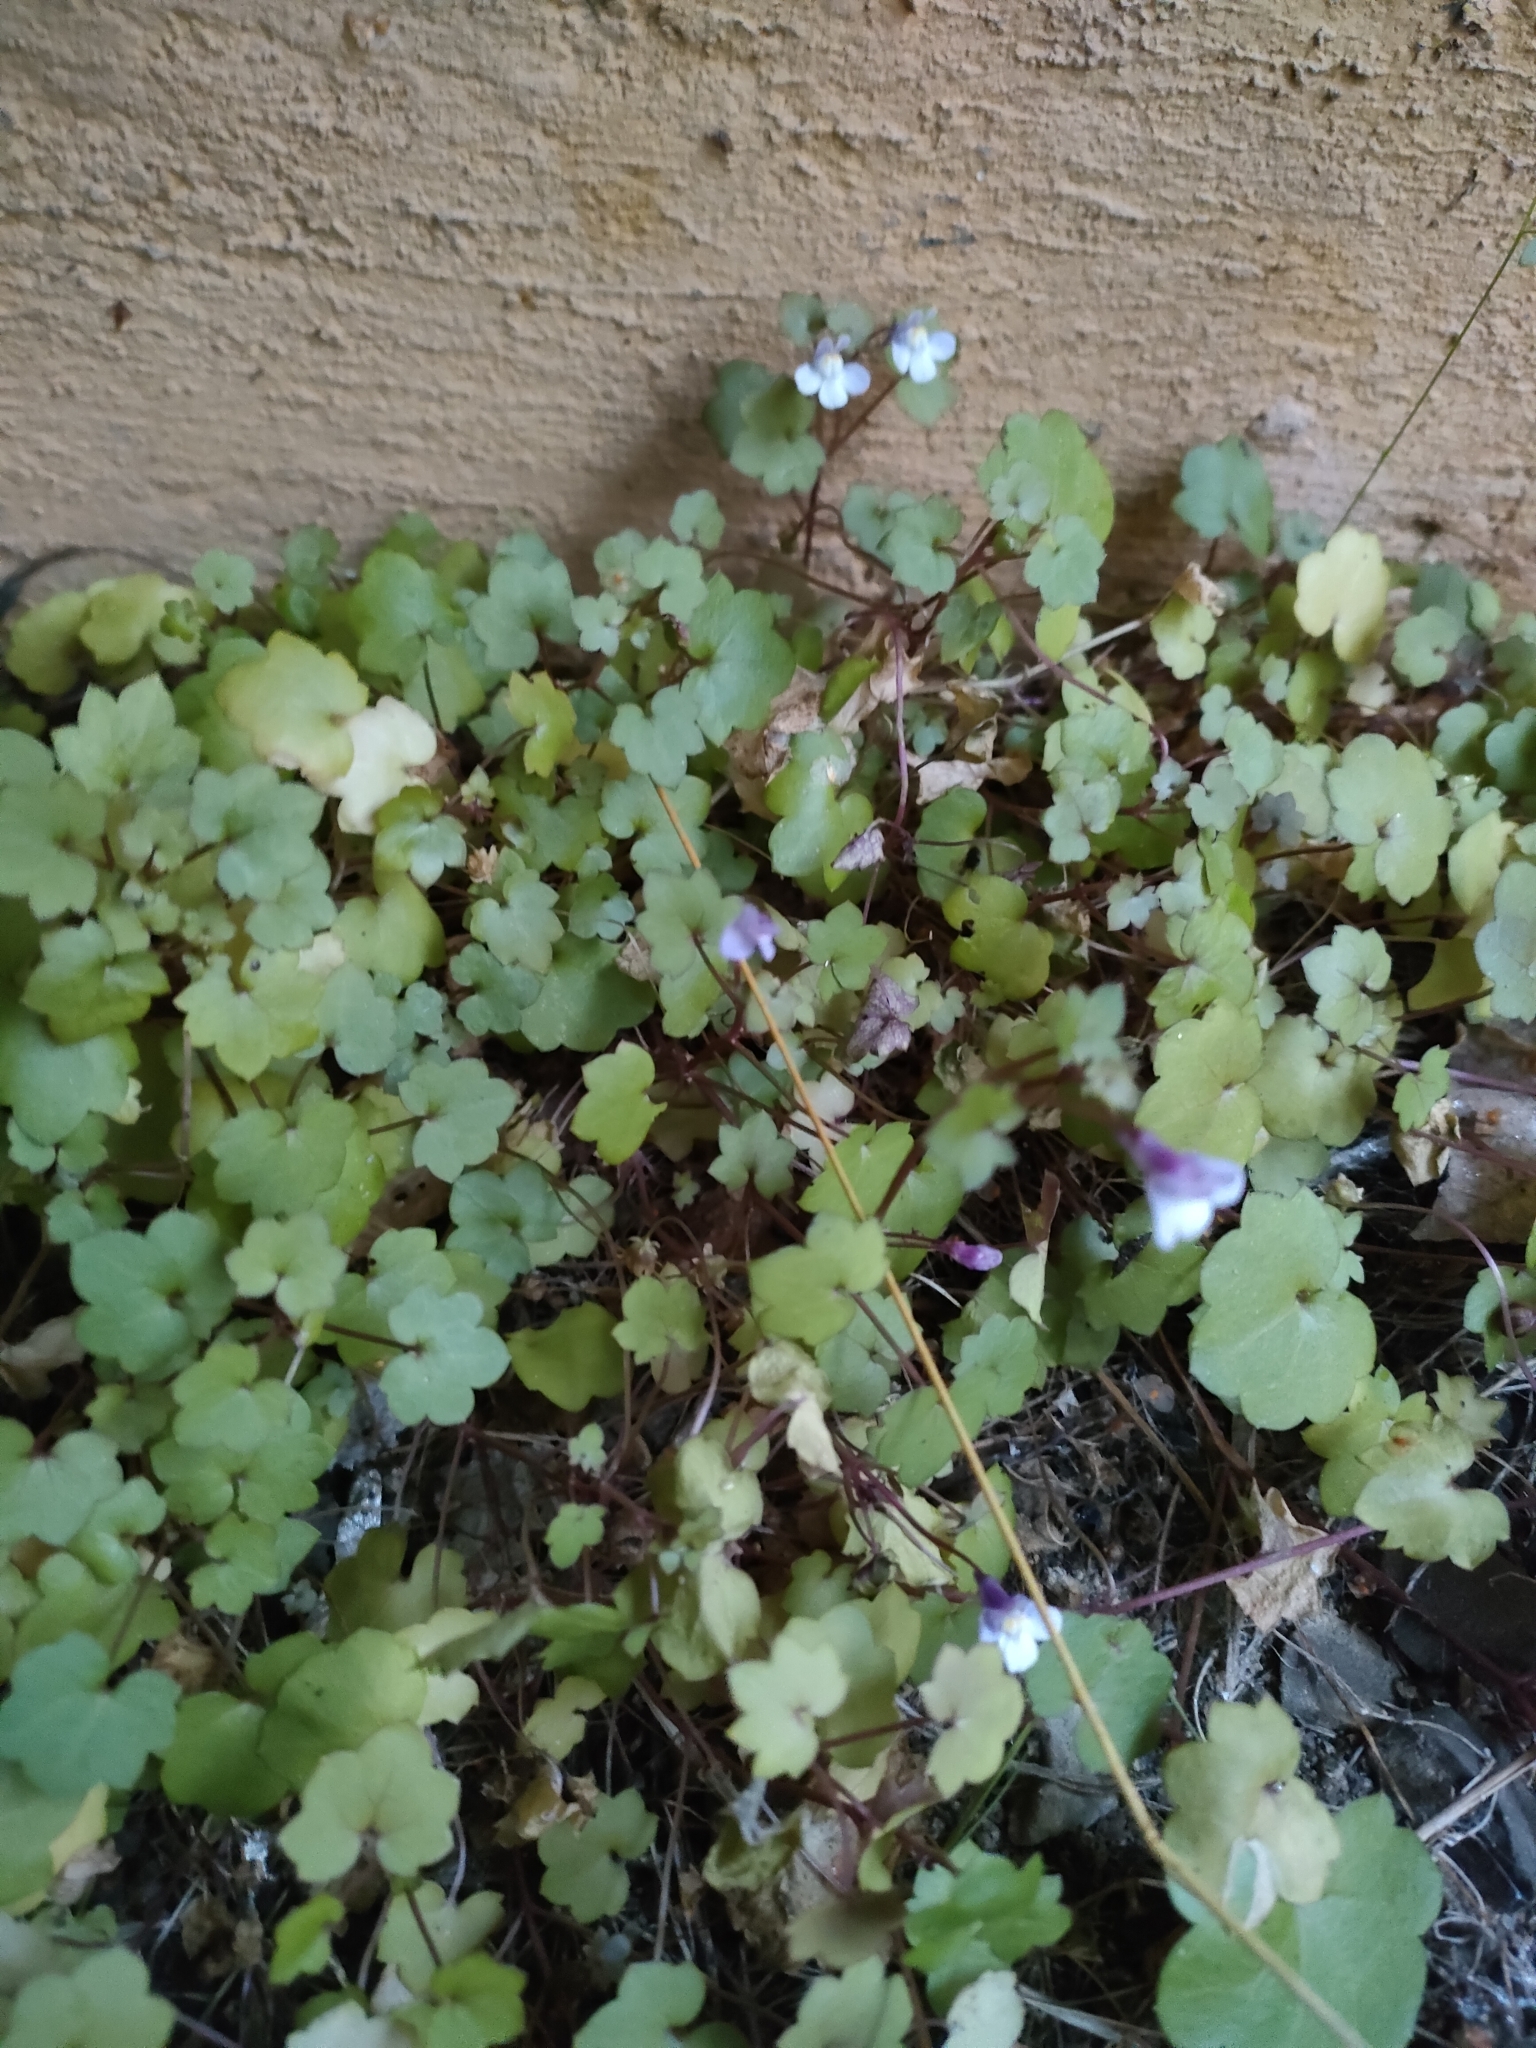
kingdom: Plantae
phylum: Tracheophyta
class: Magnoliopsida
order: Lamiales
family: Plantaginaceae
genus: Cymbalaria
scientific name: Cymbalaria muralis
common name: Ivy-leaved toadflax
